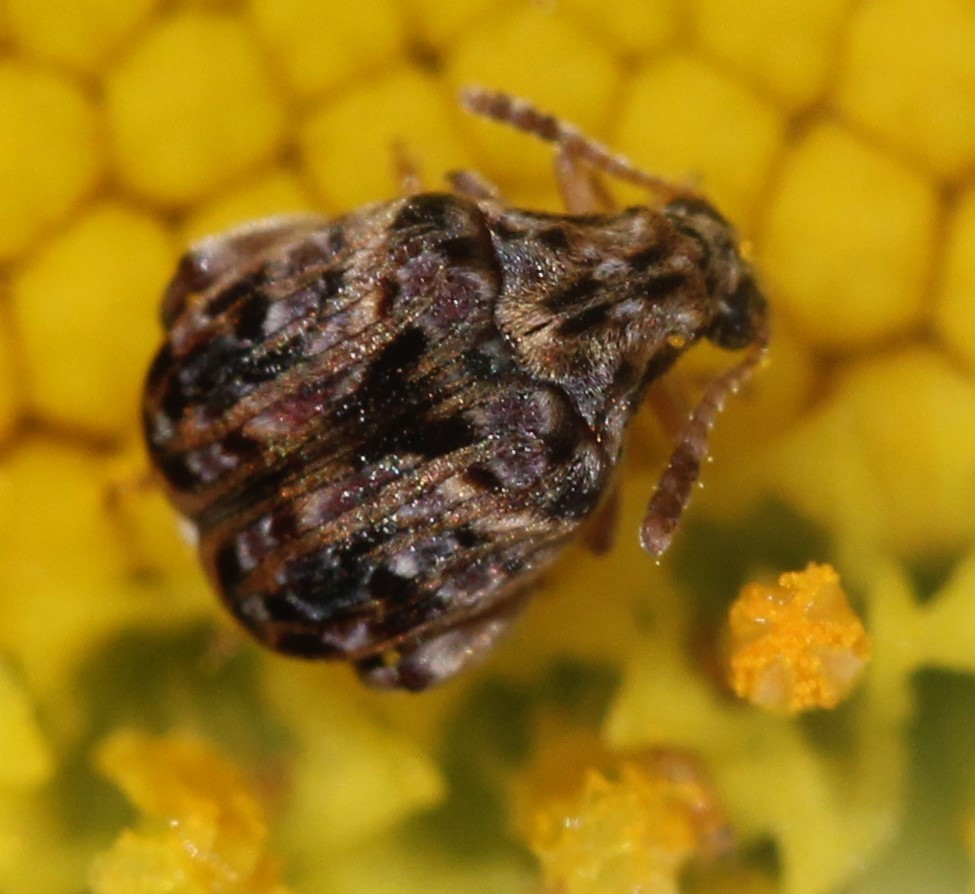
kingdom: Animalia
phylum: Arthropoda
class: Insecta
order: Coleoptera
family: Chrysomelidae
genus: Gibbobruchus
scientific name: Gibbobruchus mimus
